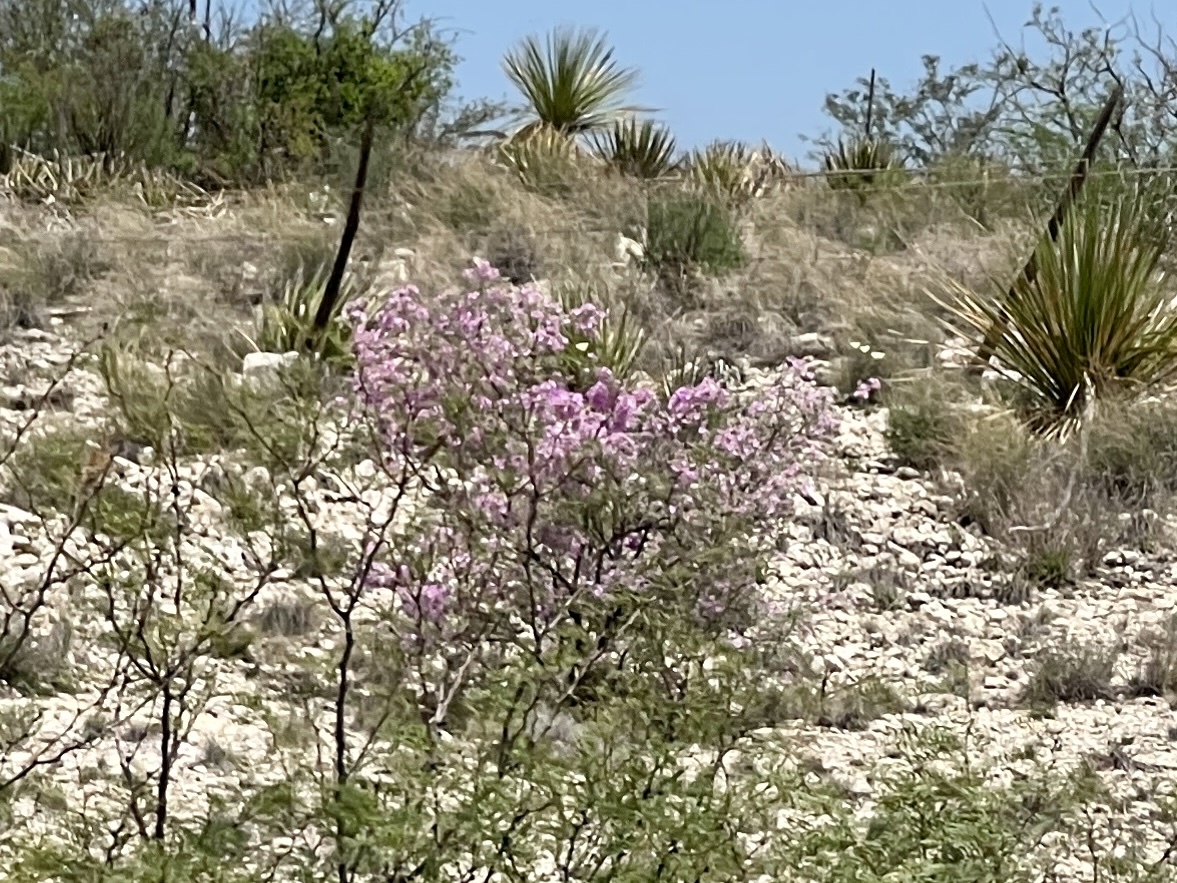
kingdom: Plantae
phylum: Tracheophyta
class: Magnoliopsida
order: Lamiales
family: Scrophulariaceae
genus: Leucophyllum
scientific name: Leucophyllum frutescens
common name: Texas silverleaf
